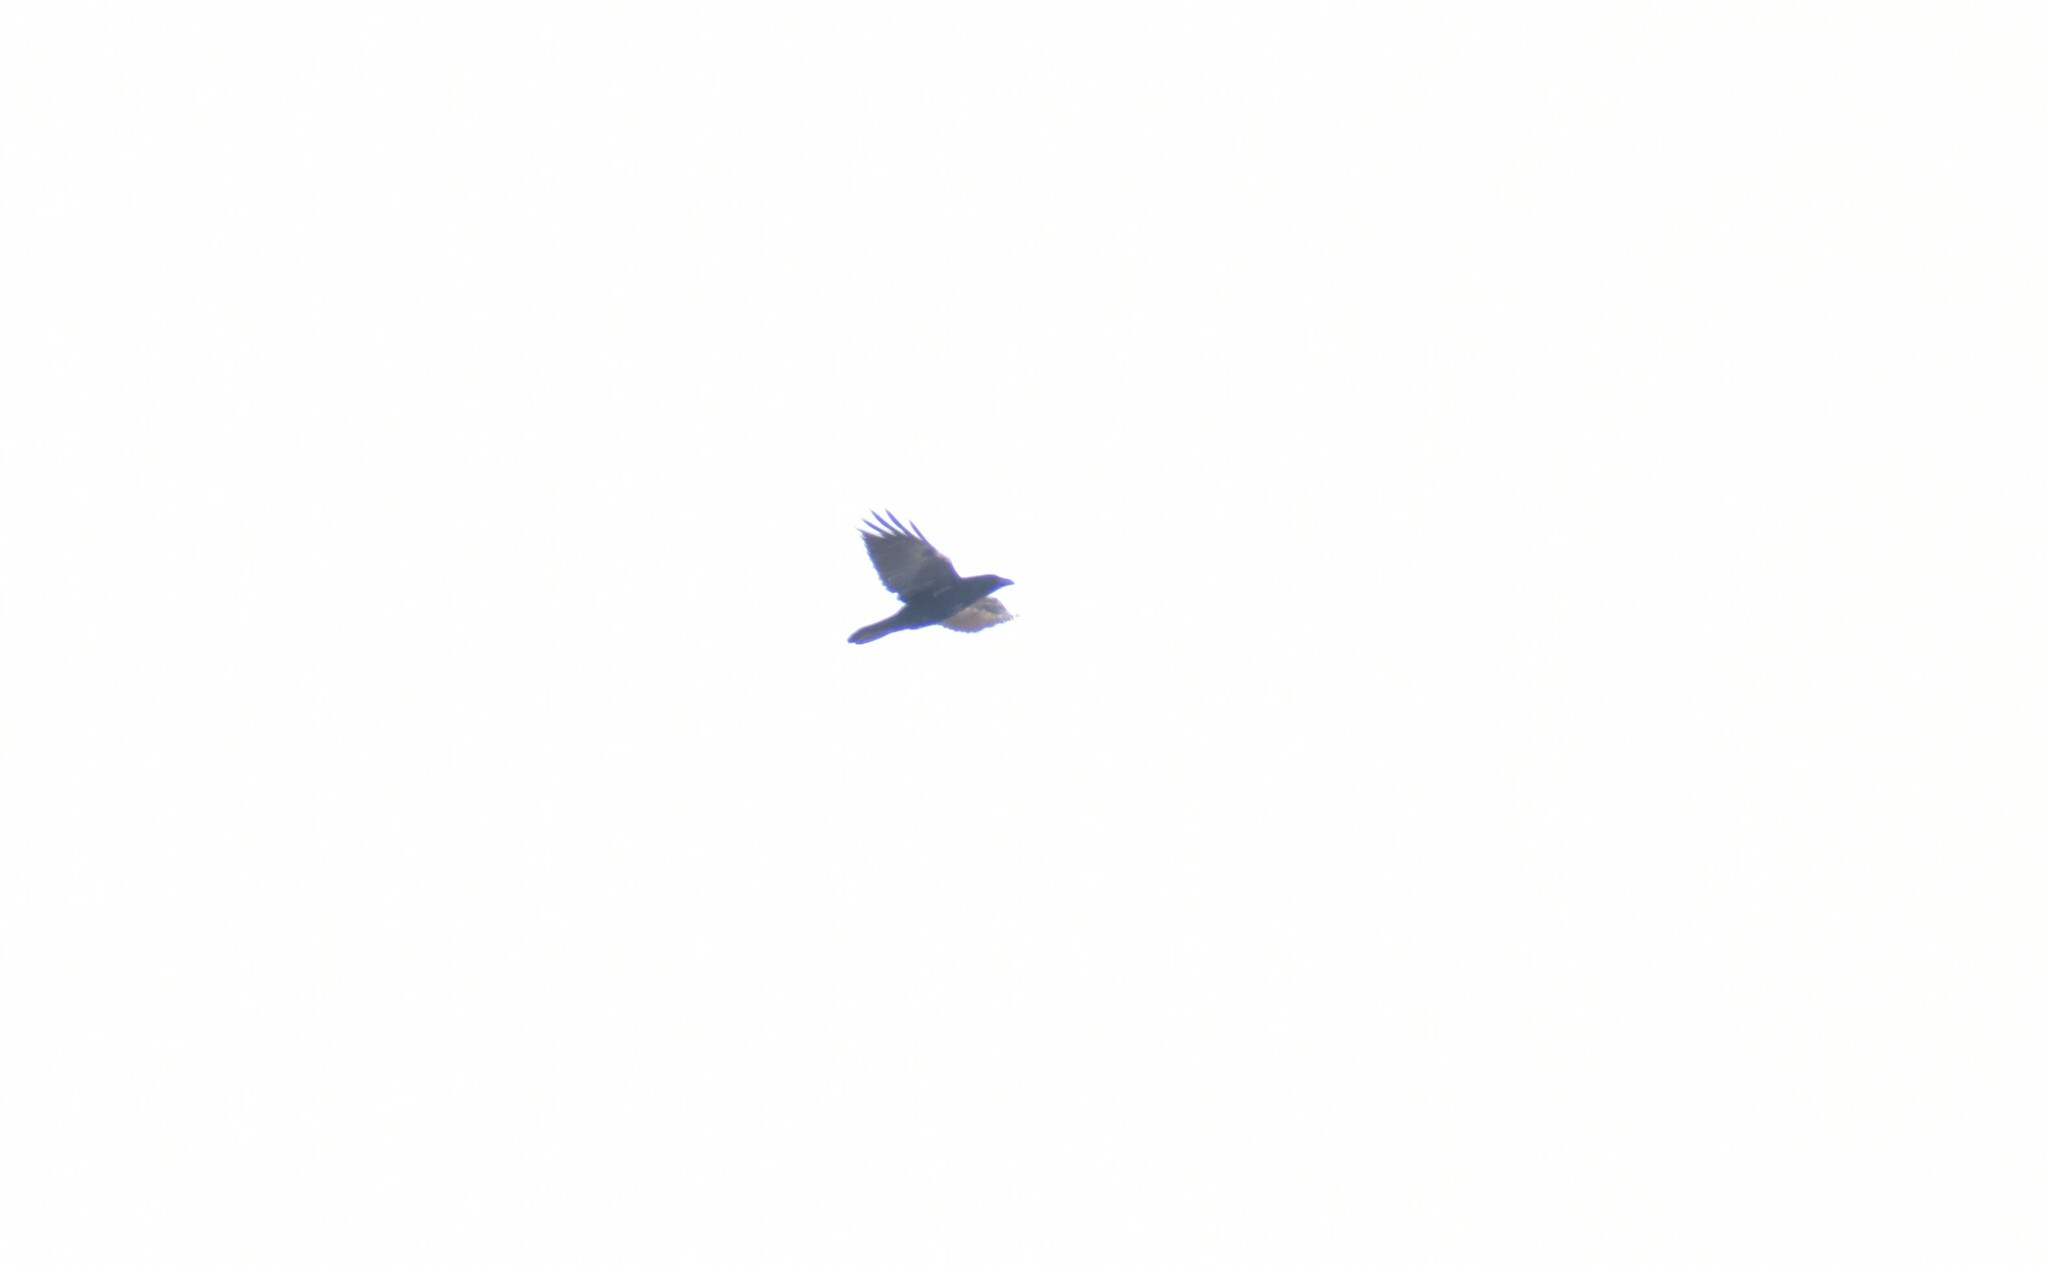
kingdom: Animalia
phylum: Chordata
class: Aves
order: Passeriformes
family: Corvidae
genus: Corvus
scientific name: Corvus corax
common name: Common raven
